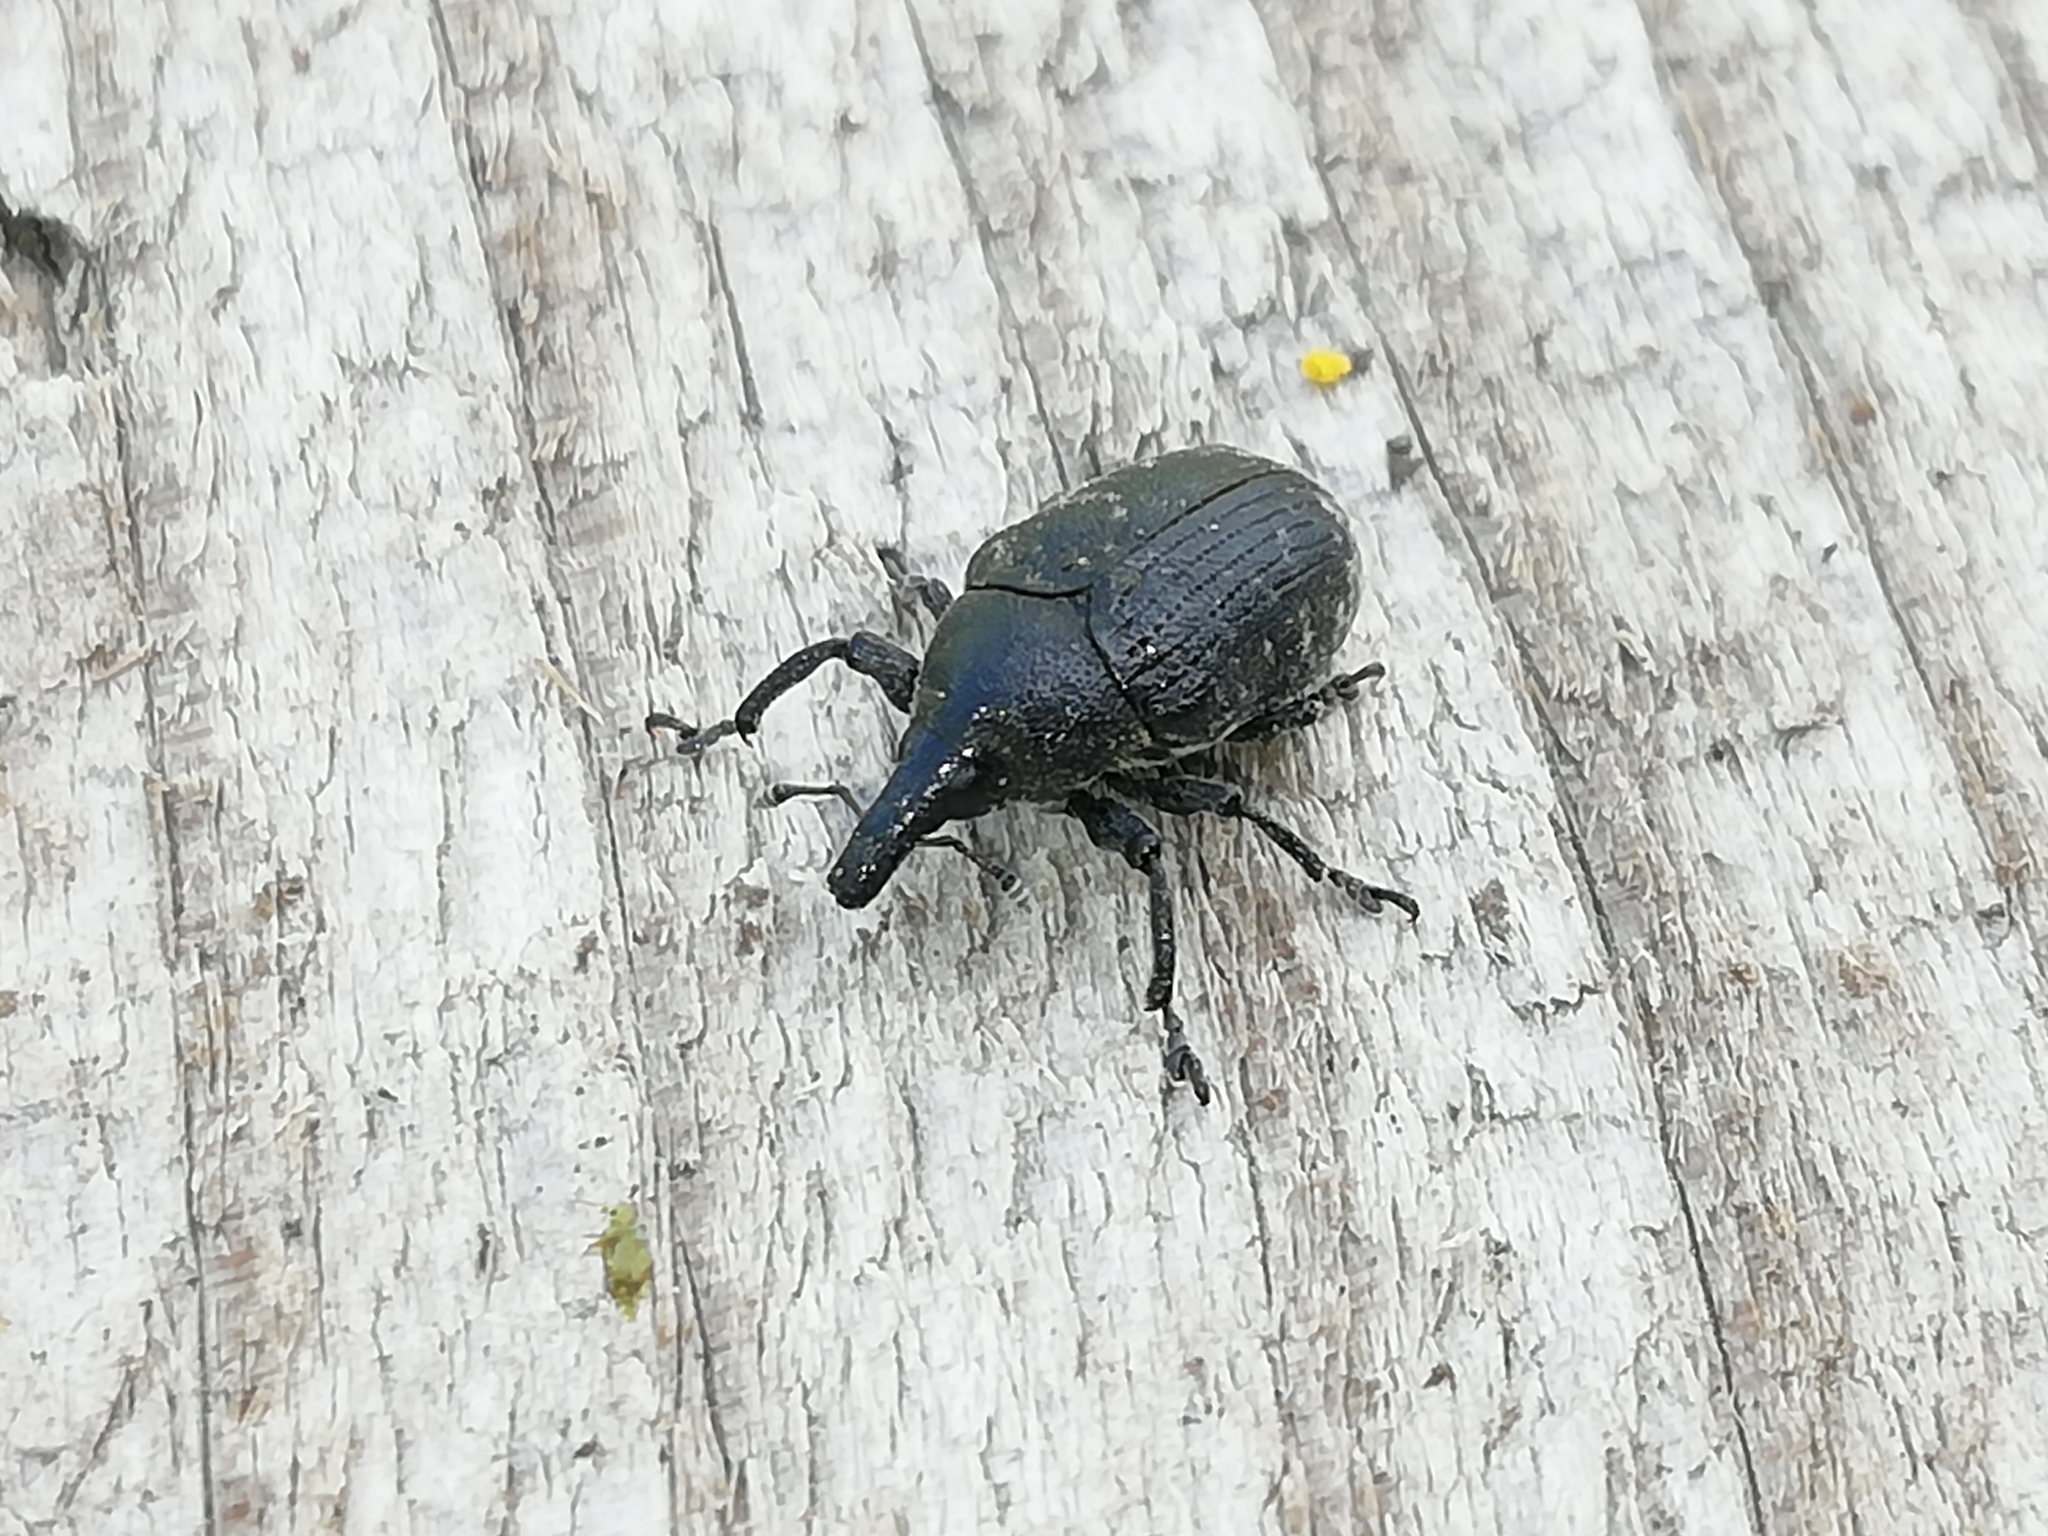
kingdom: Animalia
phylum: Arthropoda
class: Insecta
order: Coleoptera
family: Curculionidae
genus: Larinus
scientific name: Larinus turbinatus
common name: Weevil
